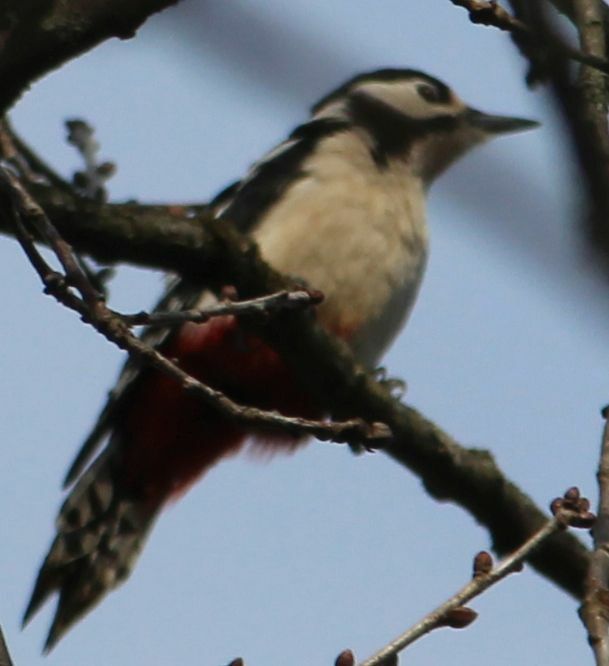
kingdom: Animalia
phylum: Chordata
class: Aves
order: Piciformes
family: Picidae
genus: Dendrocopos
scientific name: Dendrocopos major
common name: Great spotted woodpecker
